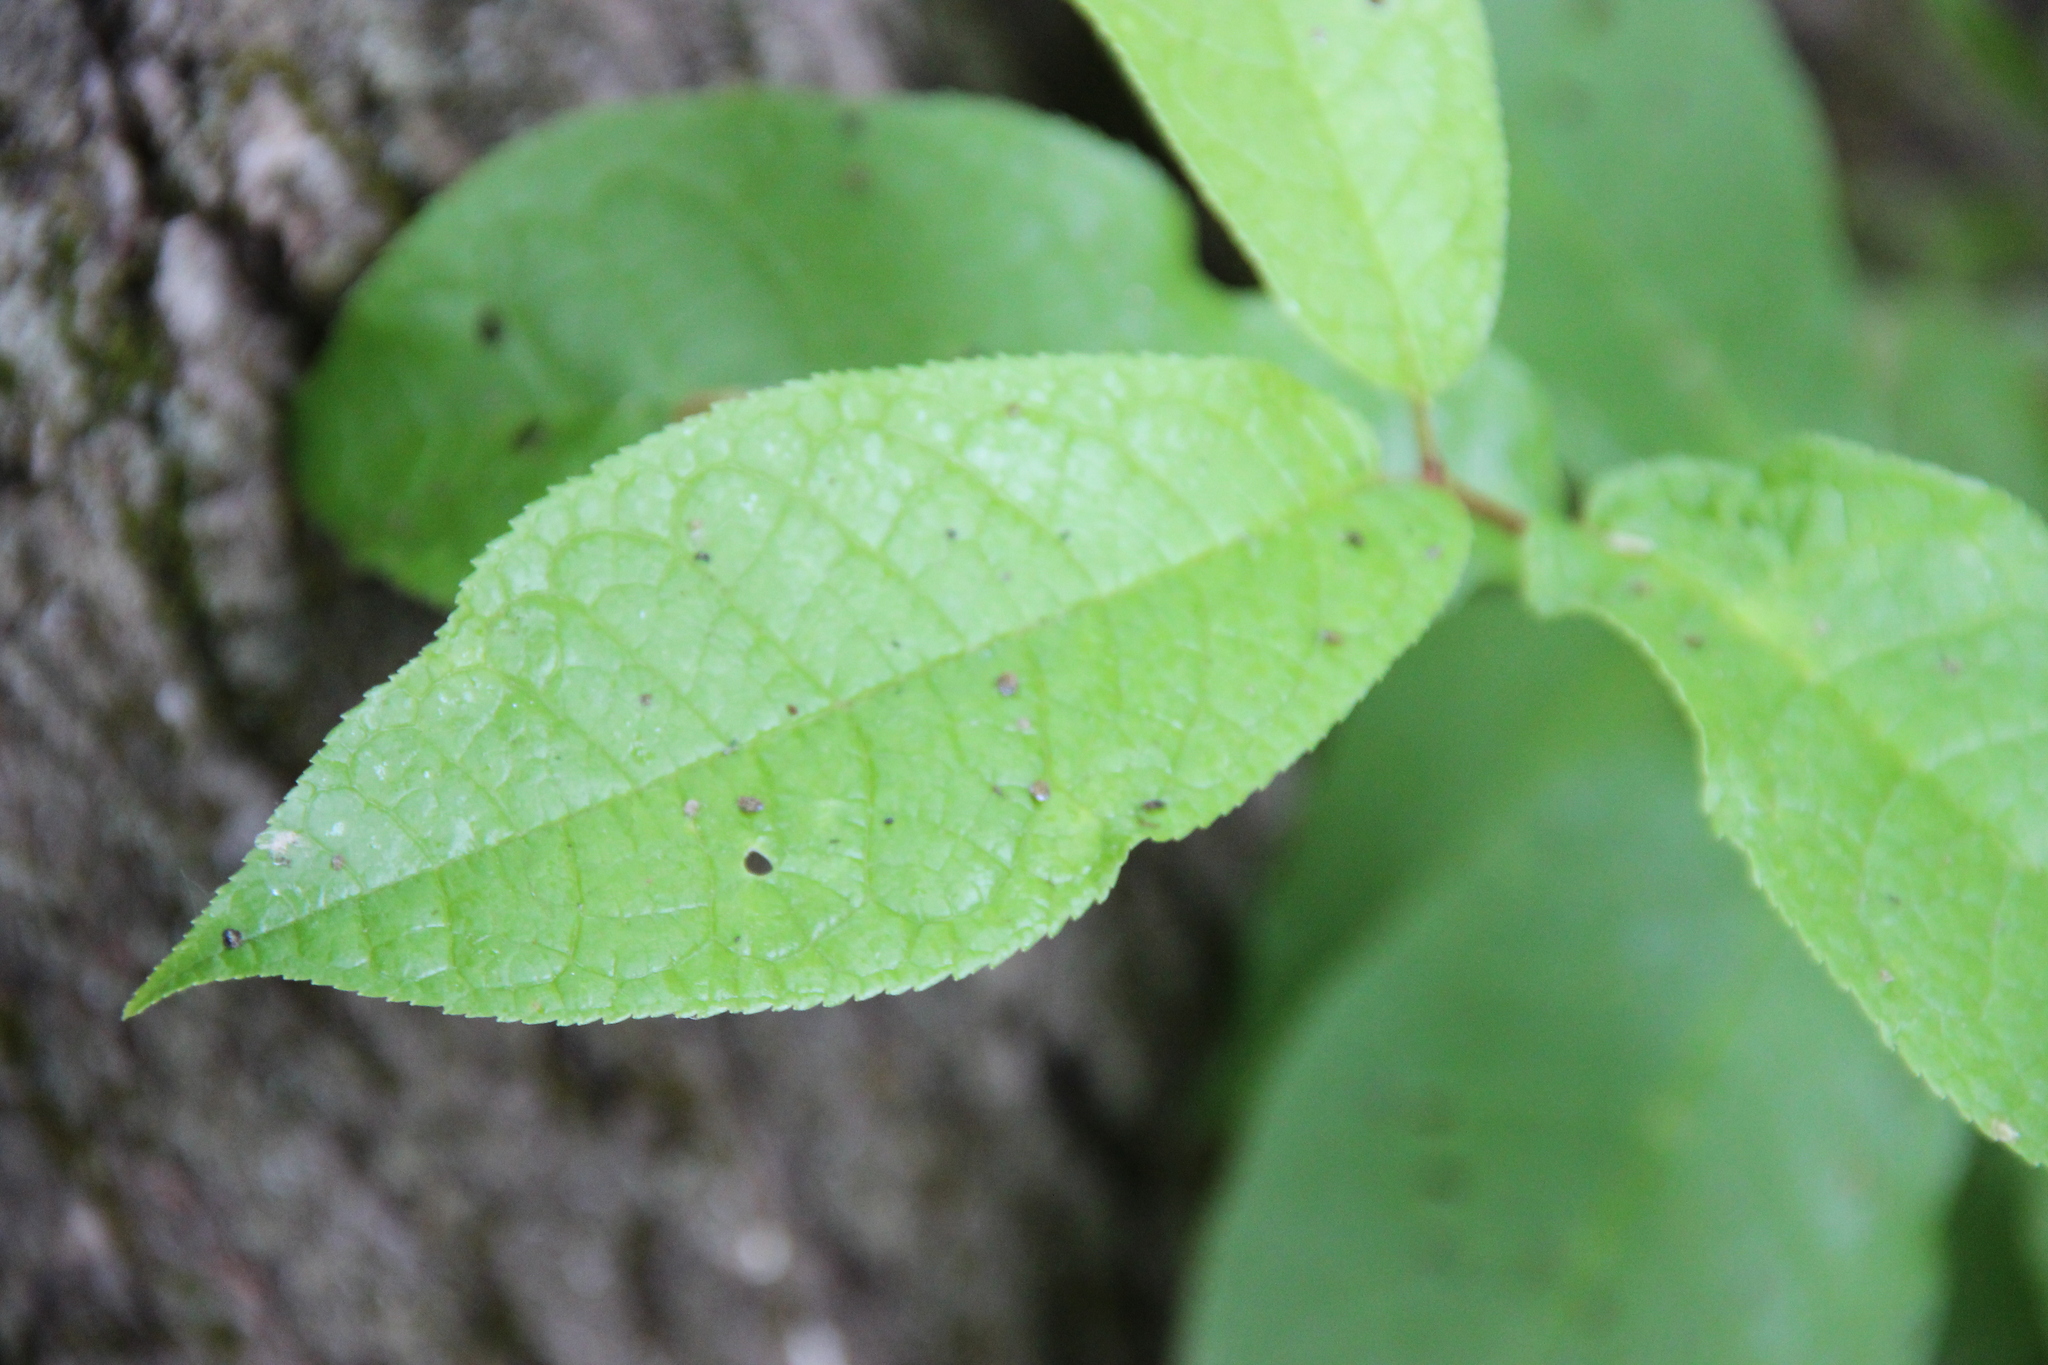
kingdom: Plantae
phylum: Tracheophyta
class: Magnoliopsida
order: Rosales
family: Rosaceae
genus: Prunus
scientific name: Prunus padus
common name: Bird cherry
